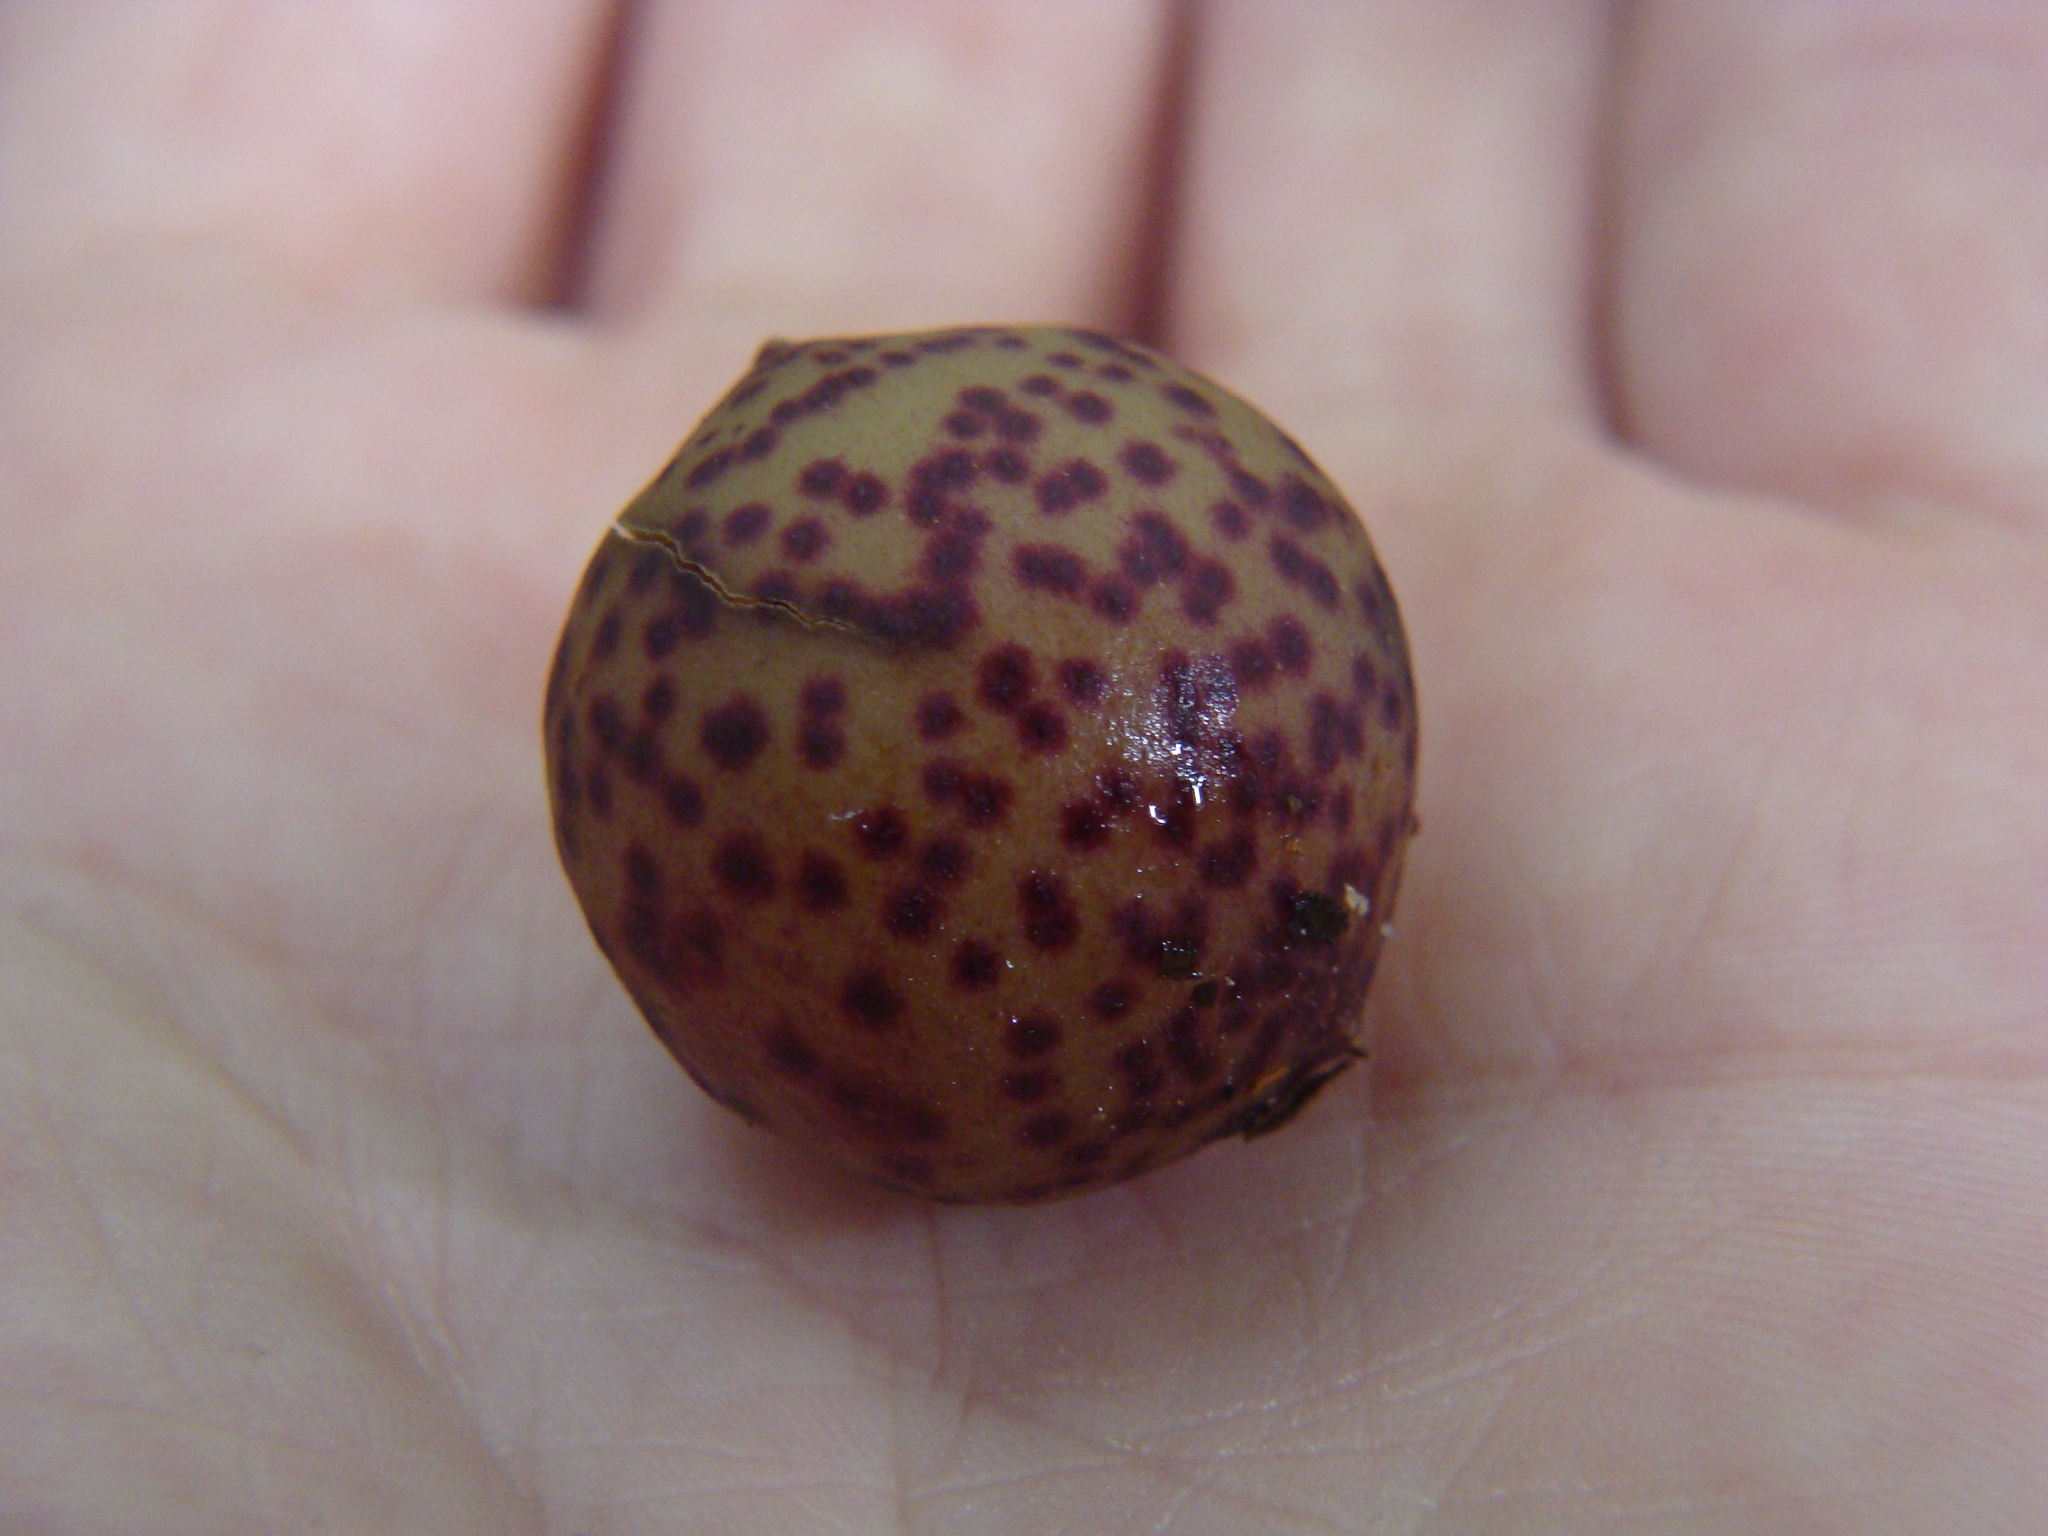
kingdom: Animalia
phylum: Arthropoda
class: Insecta
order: Hymenoptera
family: Cynipidae
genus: Amphibolips
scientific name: Amphibolips
